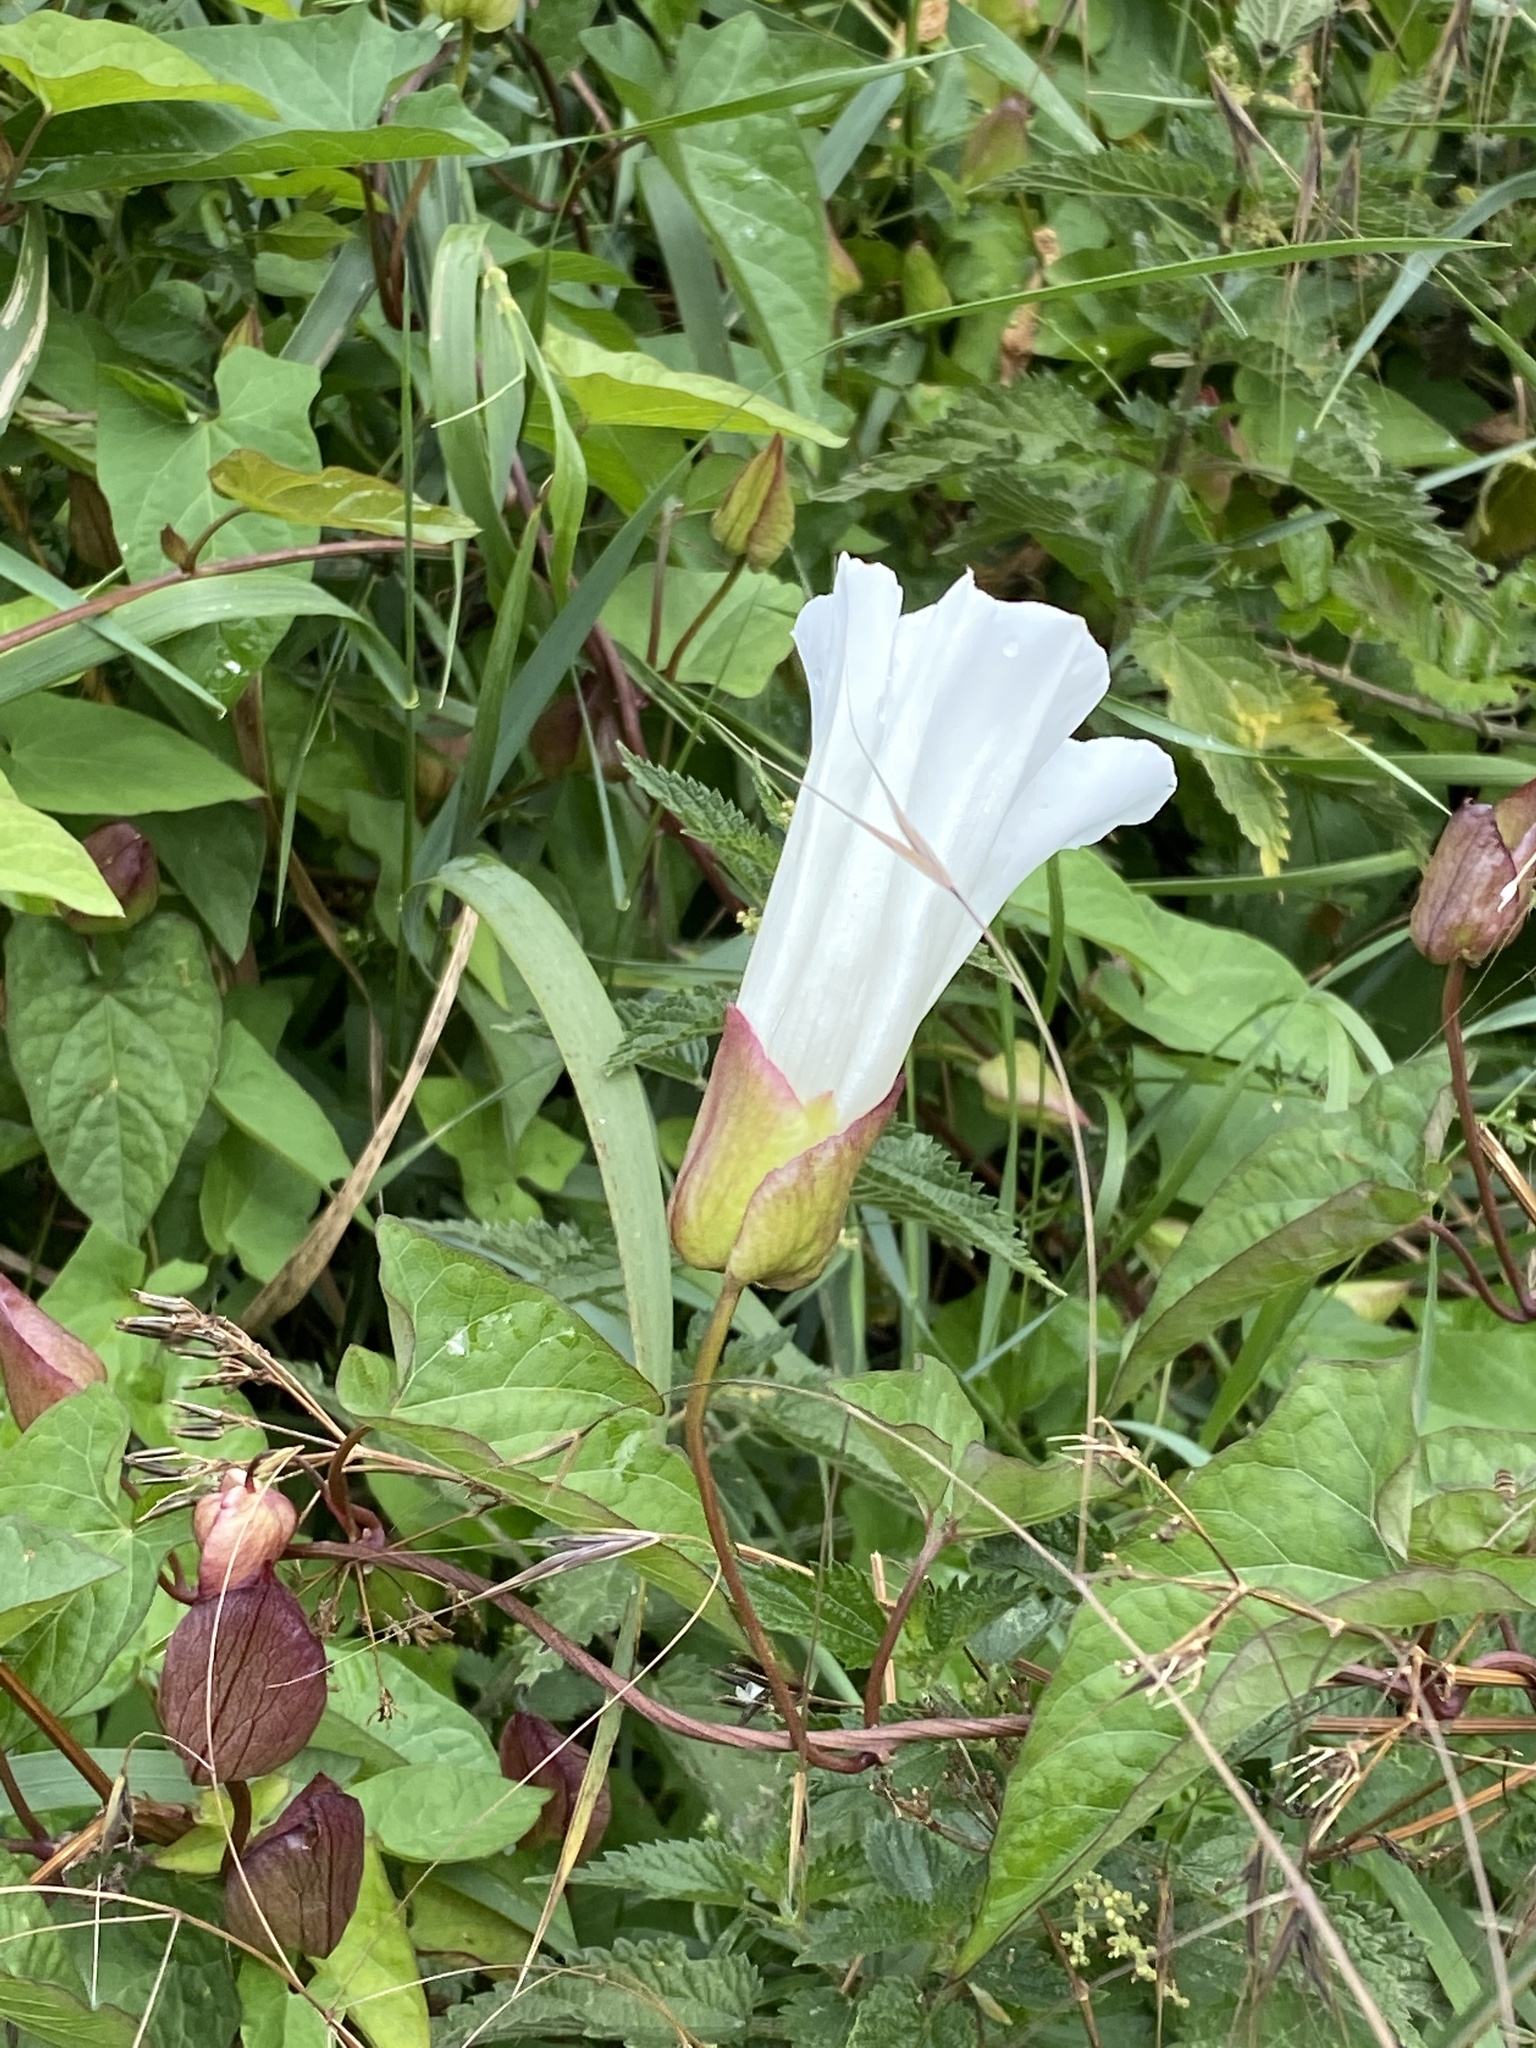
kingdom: Plantae
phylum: Tracheophyta
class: Magnoliopsida
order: Solanales
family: Convolvulaceae
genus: Calystegia
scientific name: Calystegia silvatica
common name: Large bindweed
